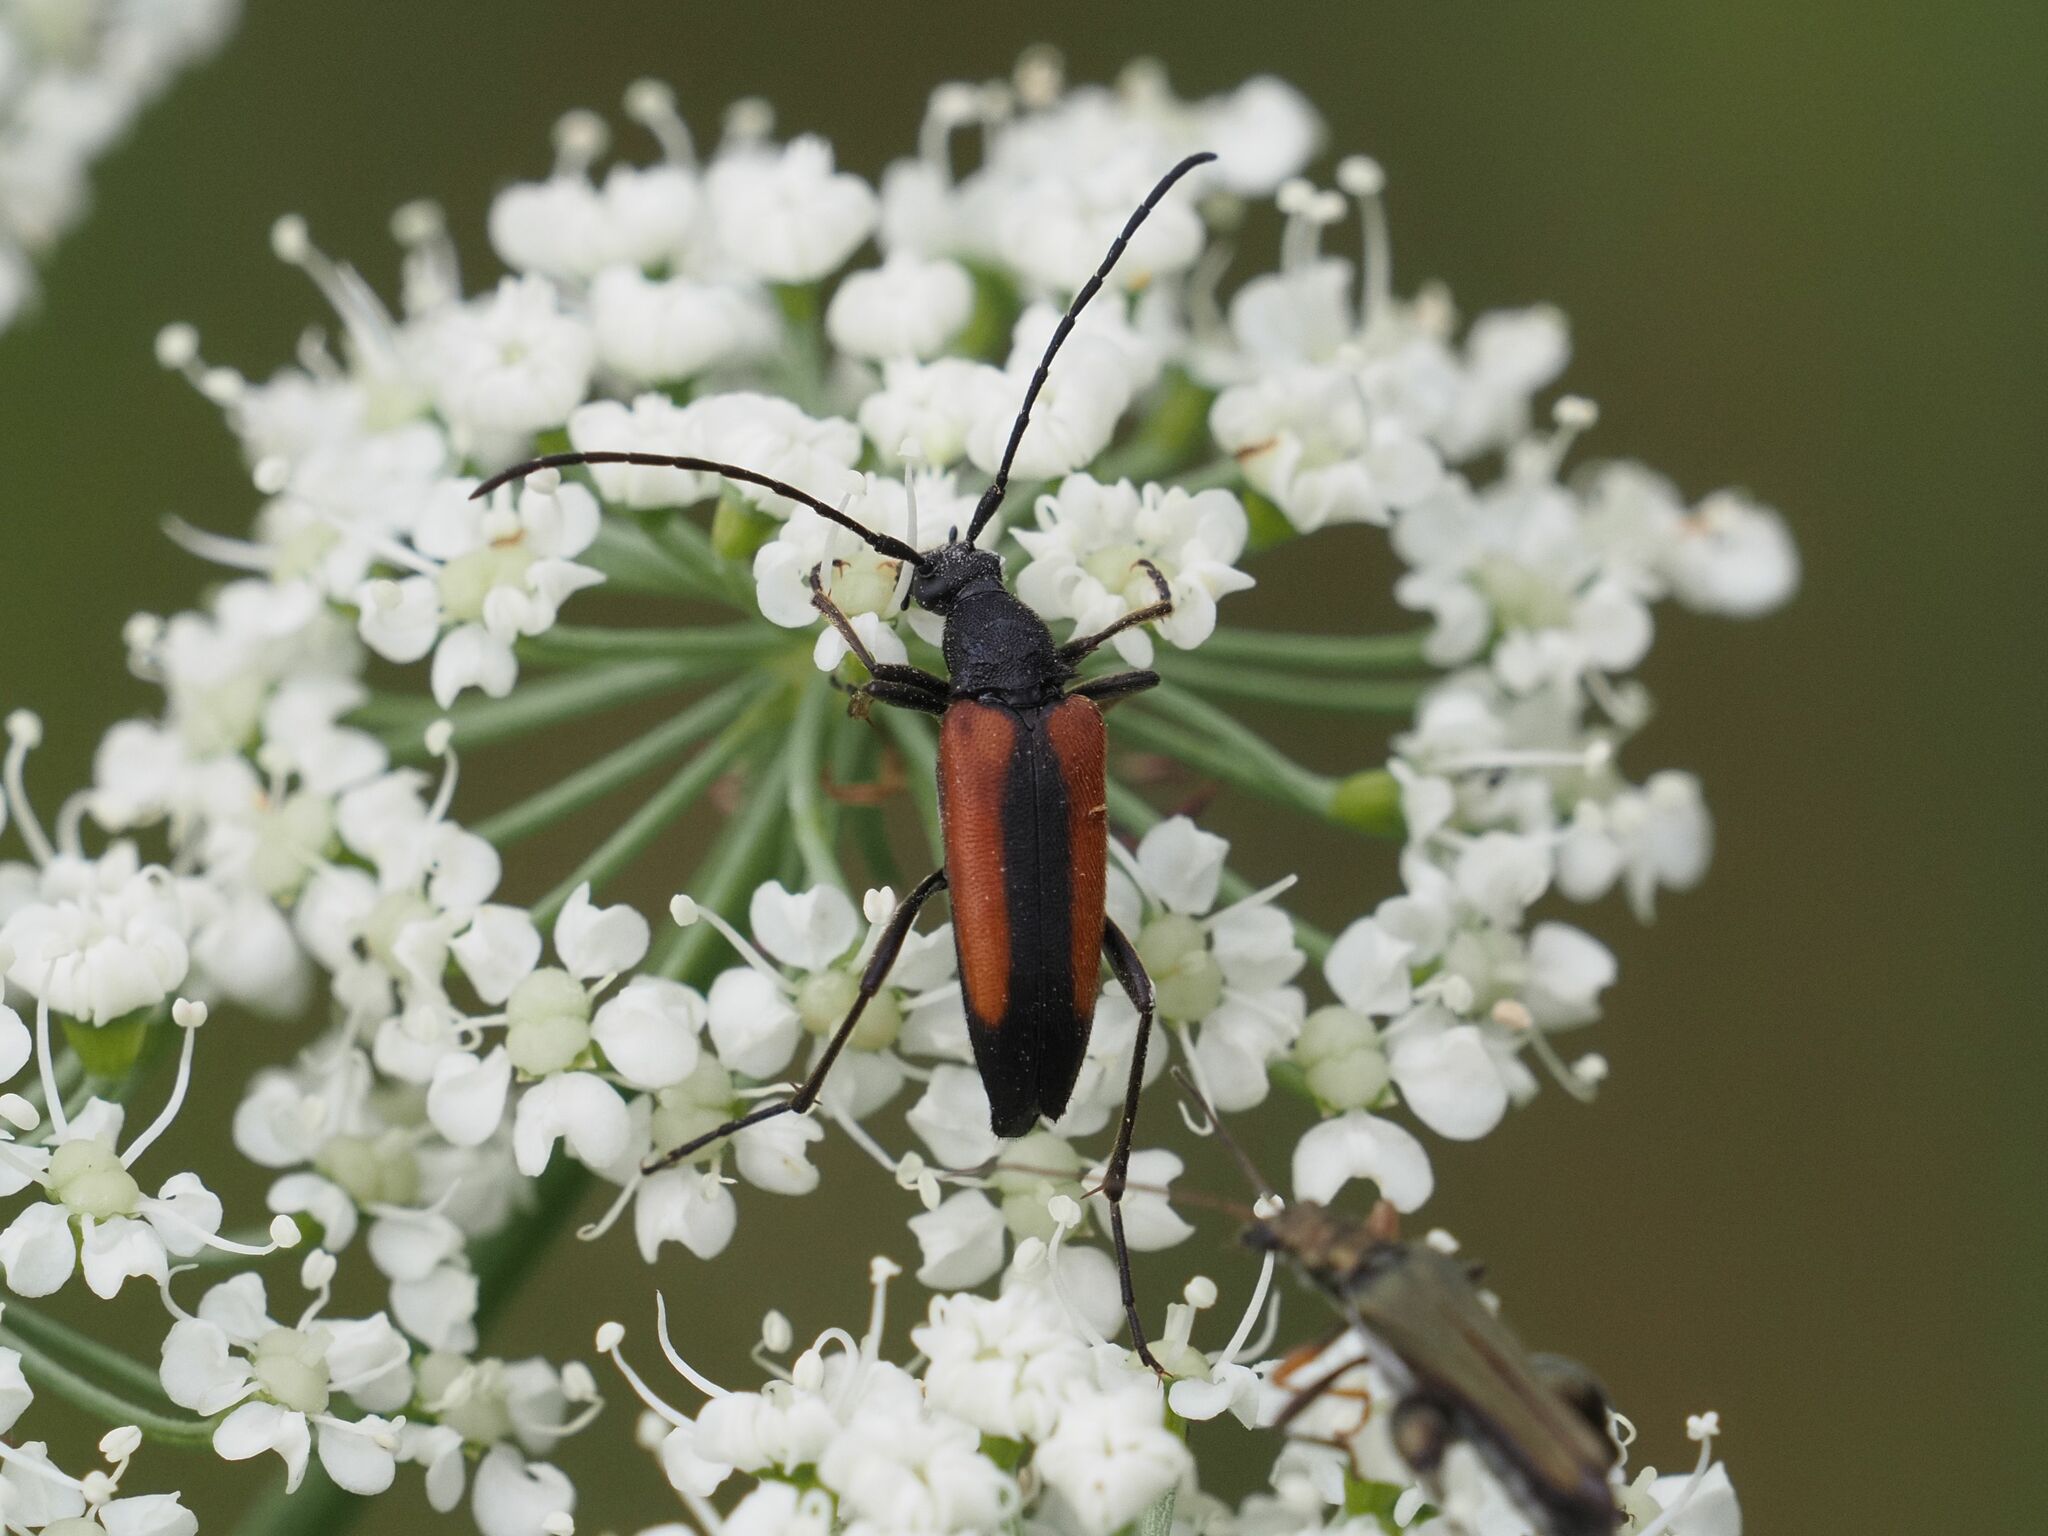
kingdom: Animalia
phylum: Arthropoda
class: Insecta
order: Coleoptera
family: Cerambycidae
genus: Stenurella
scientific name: Stenurella melanura
